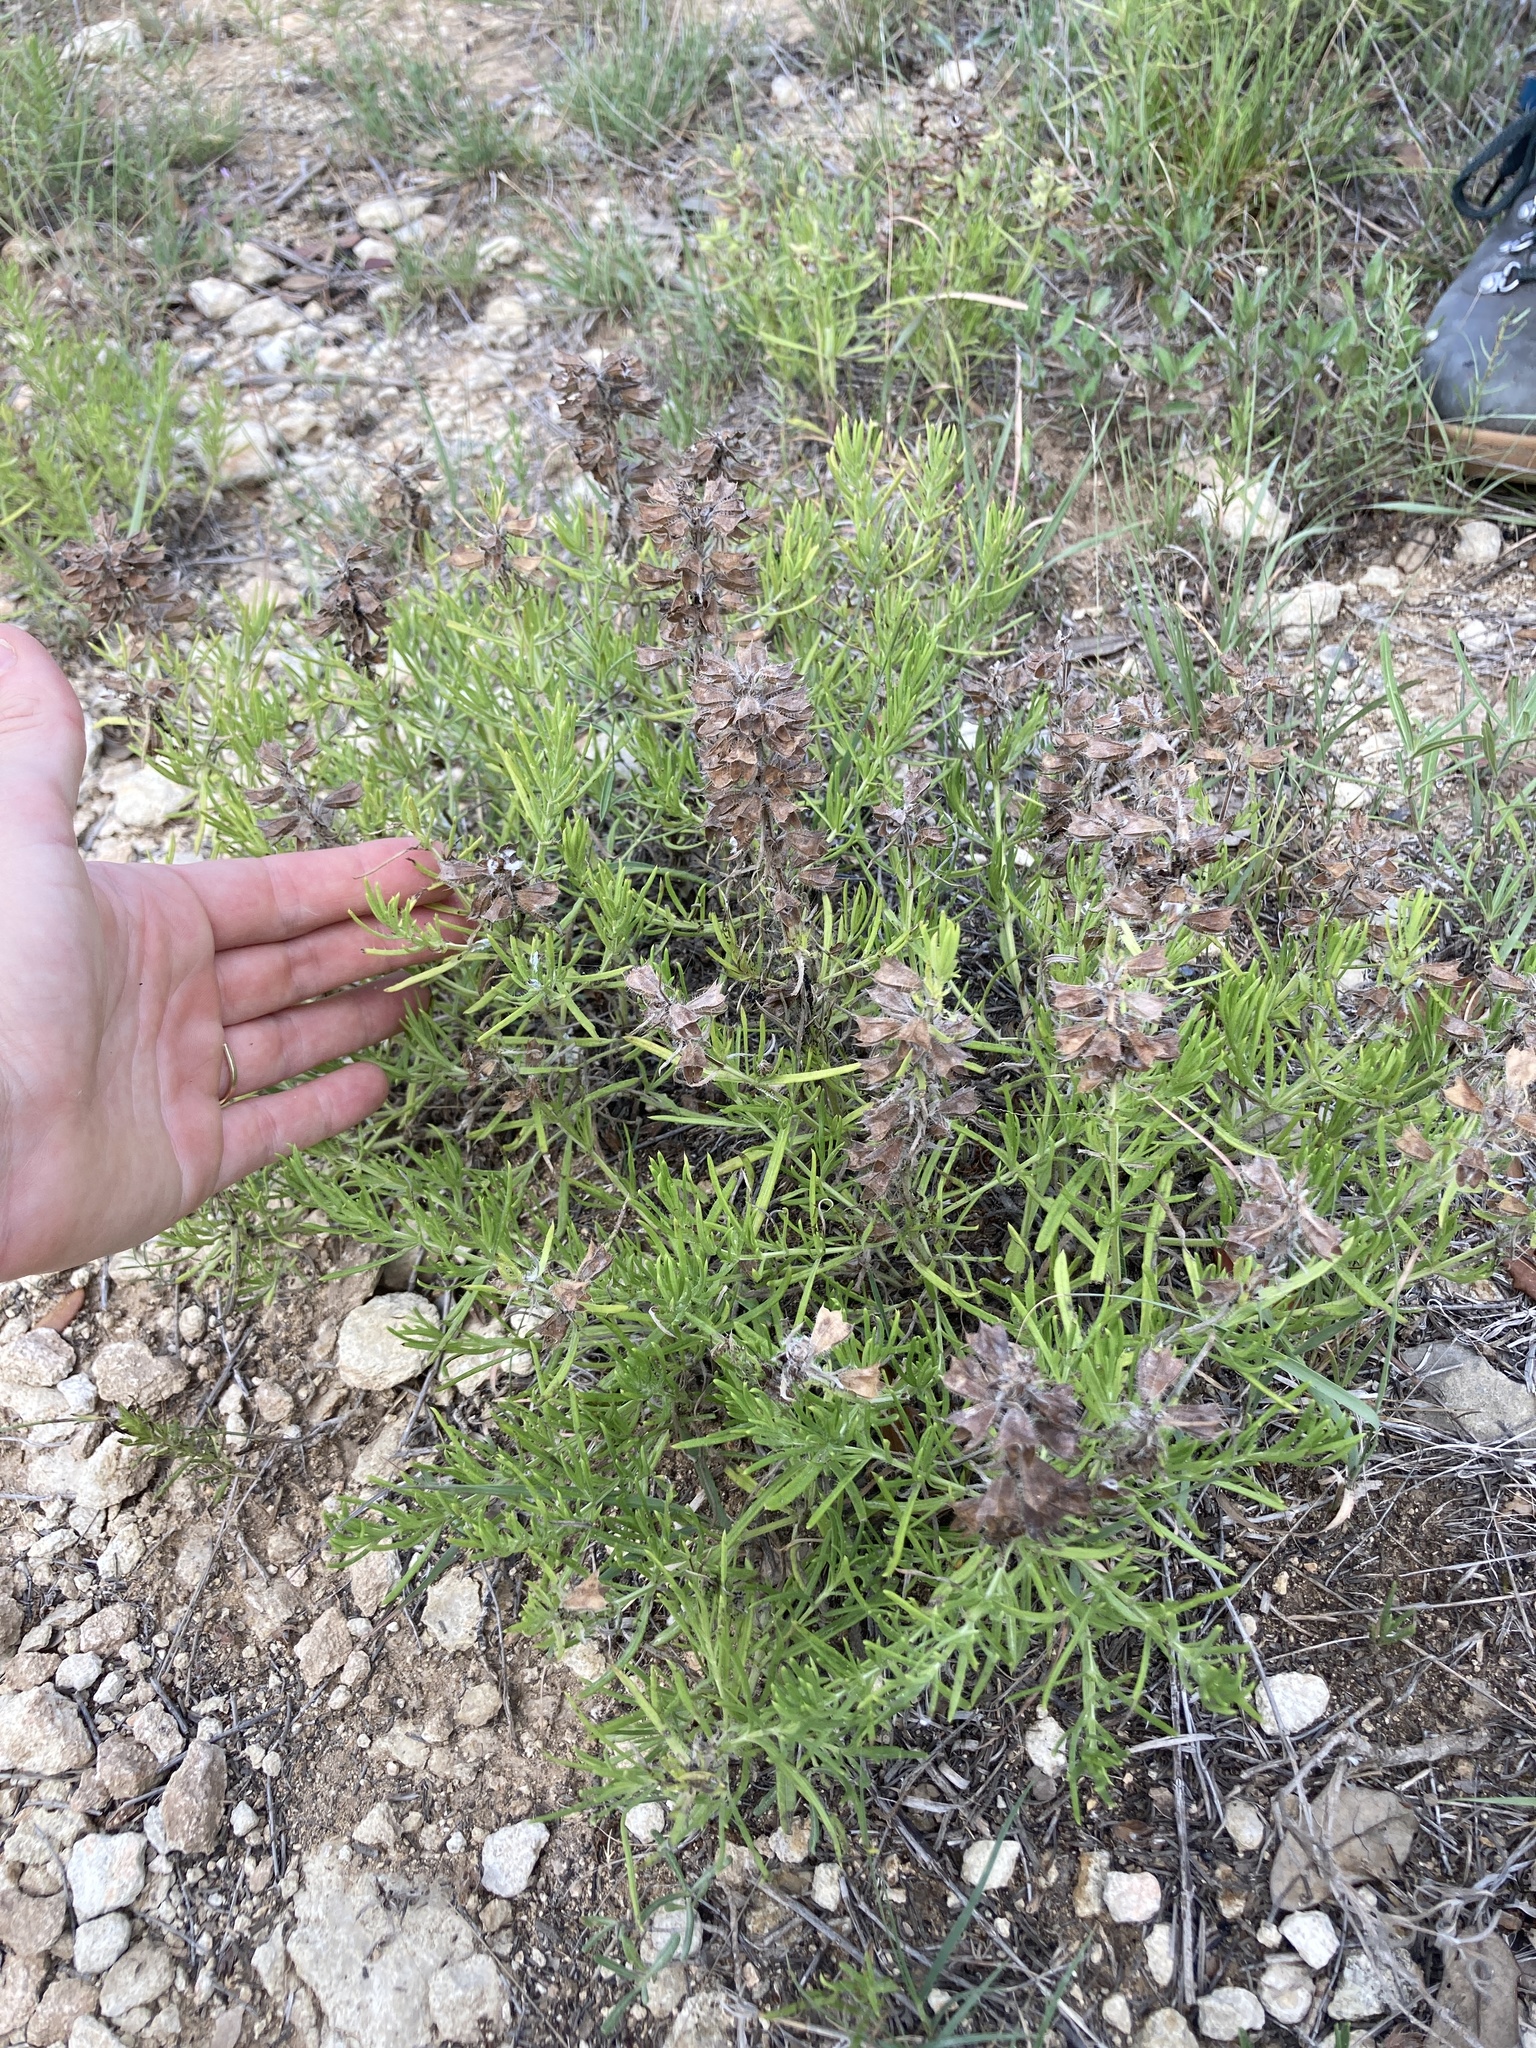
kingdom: Plantae
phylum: Tracheophyta
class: Magnoliopsida
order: Lamiales
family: Lamiaceae
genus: Salvia
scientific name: Salvia engelmannii
